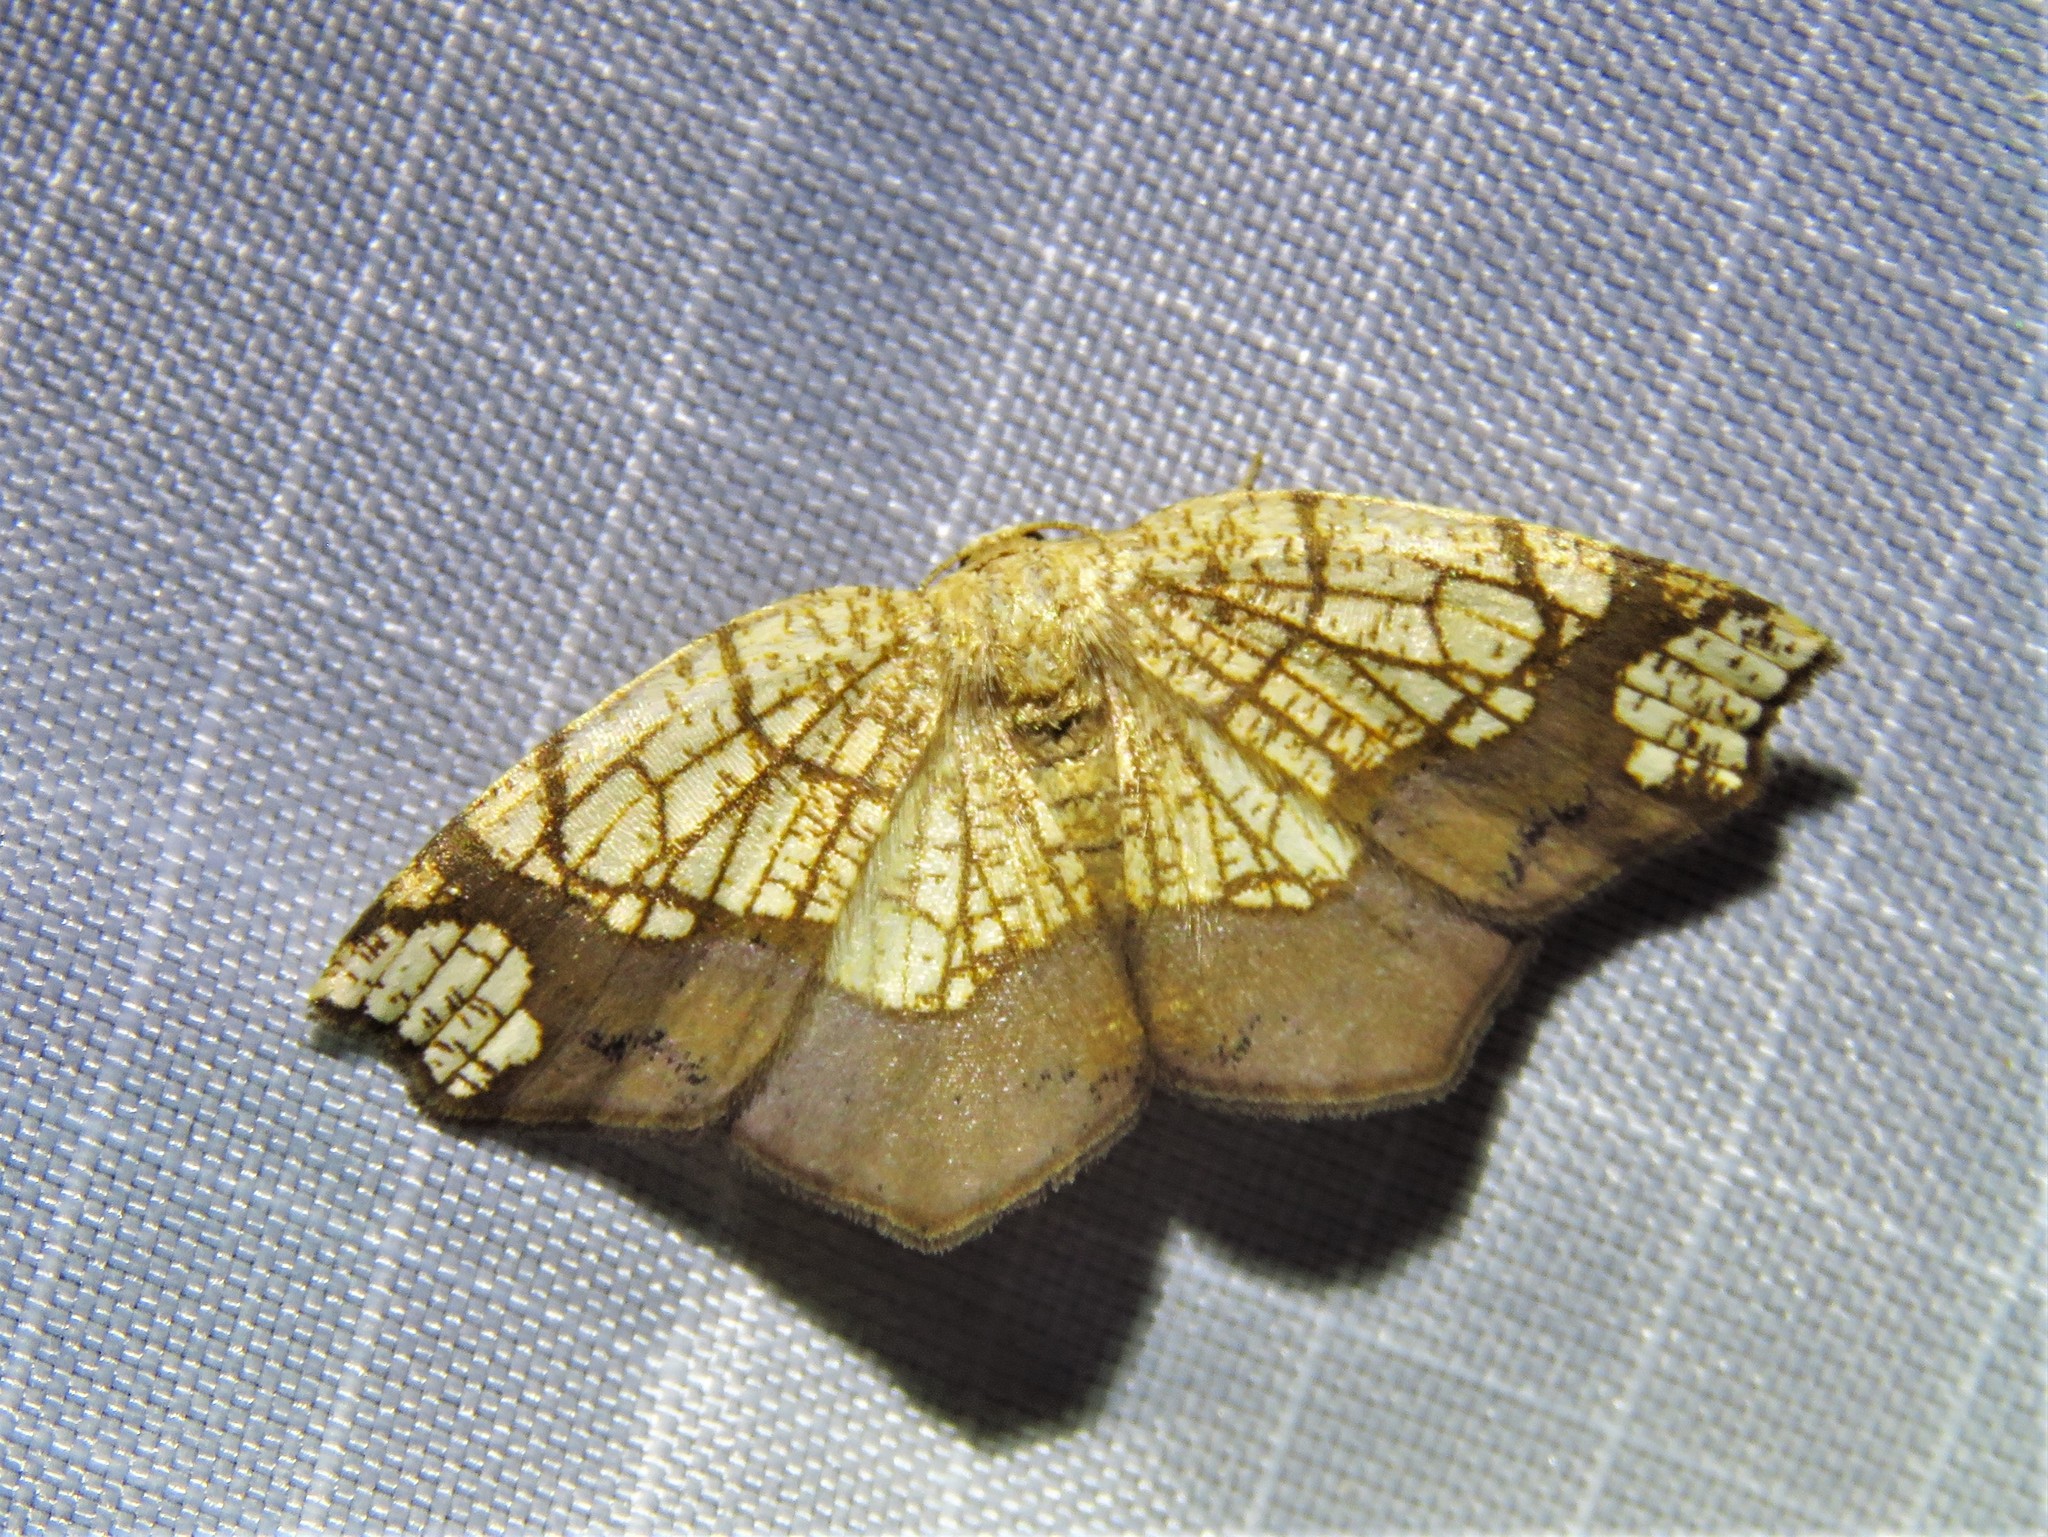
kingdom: Animalia
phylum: Arthropoda
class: Insecta
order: Lepidoptera
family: Geometridae
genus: Nematocampa
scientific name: Nematocampa resistaria
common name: Horned spanworm moth
